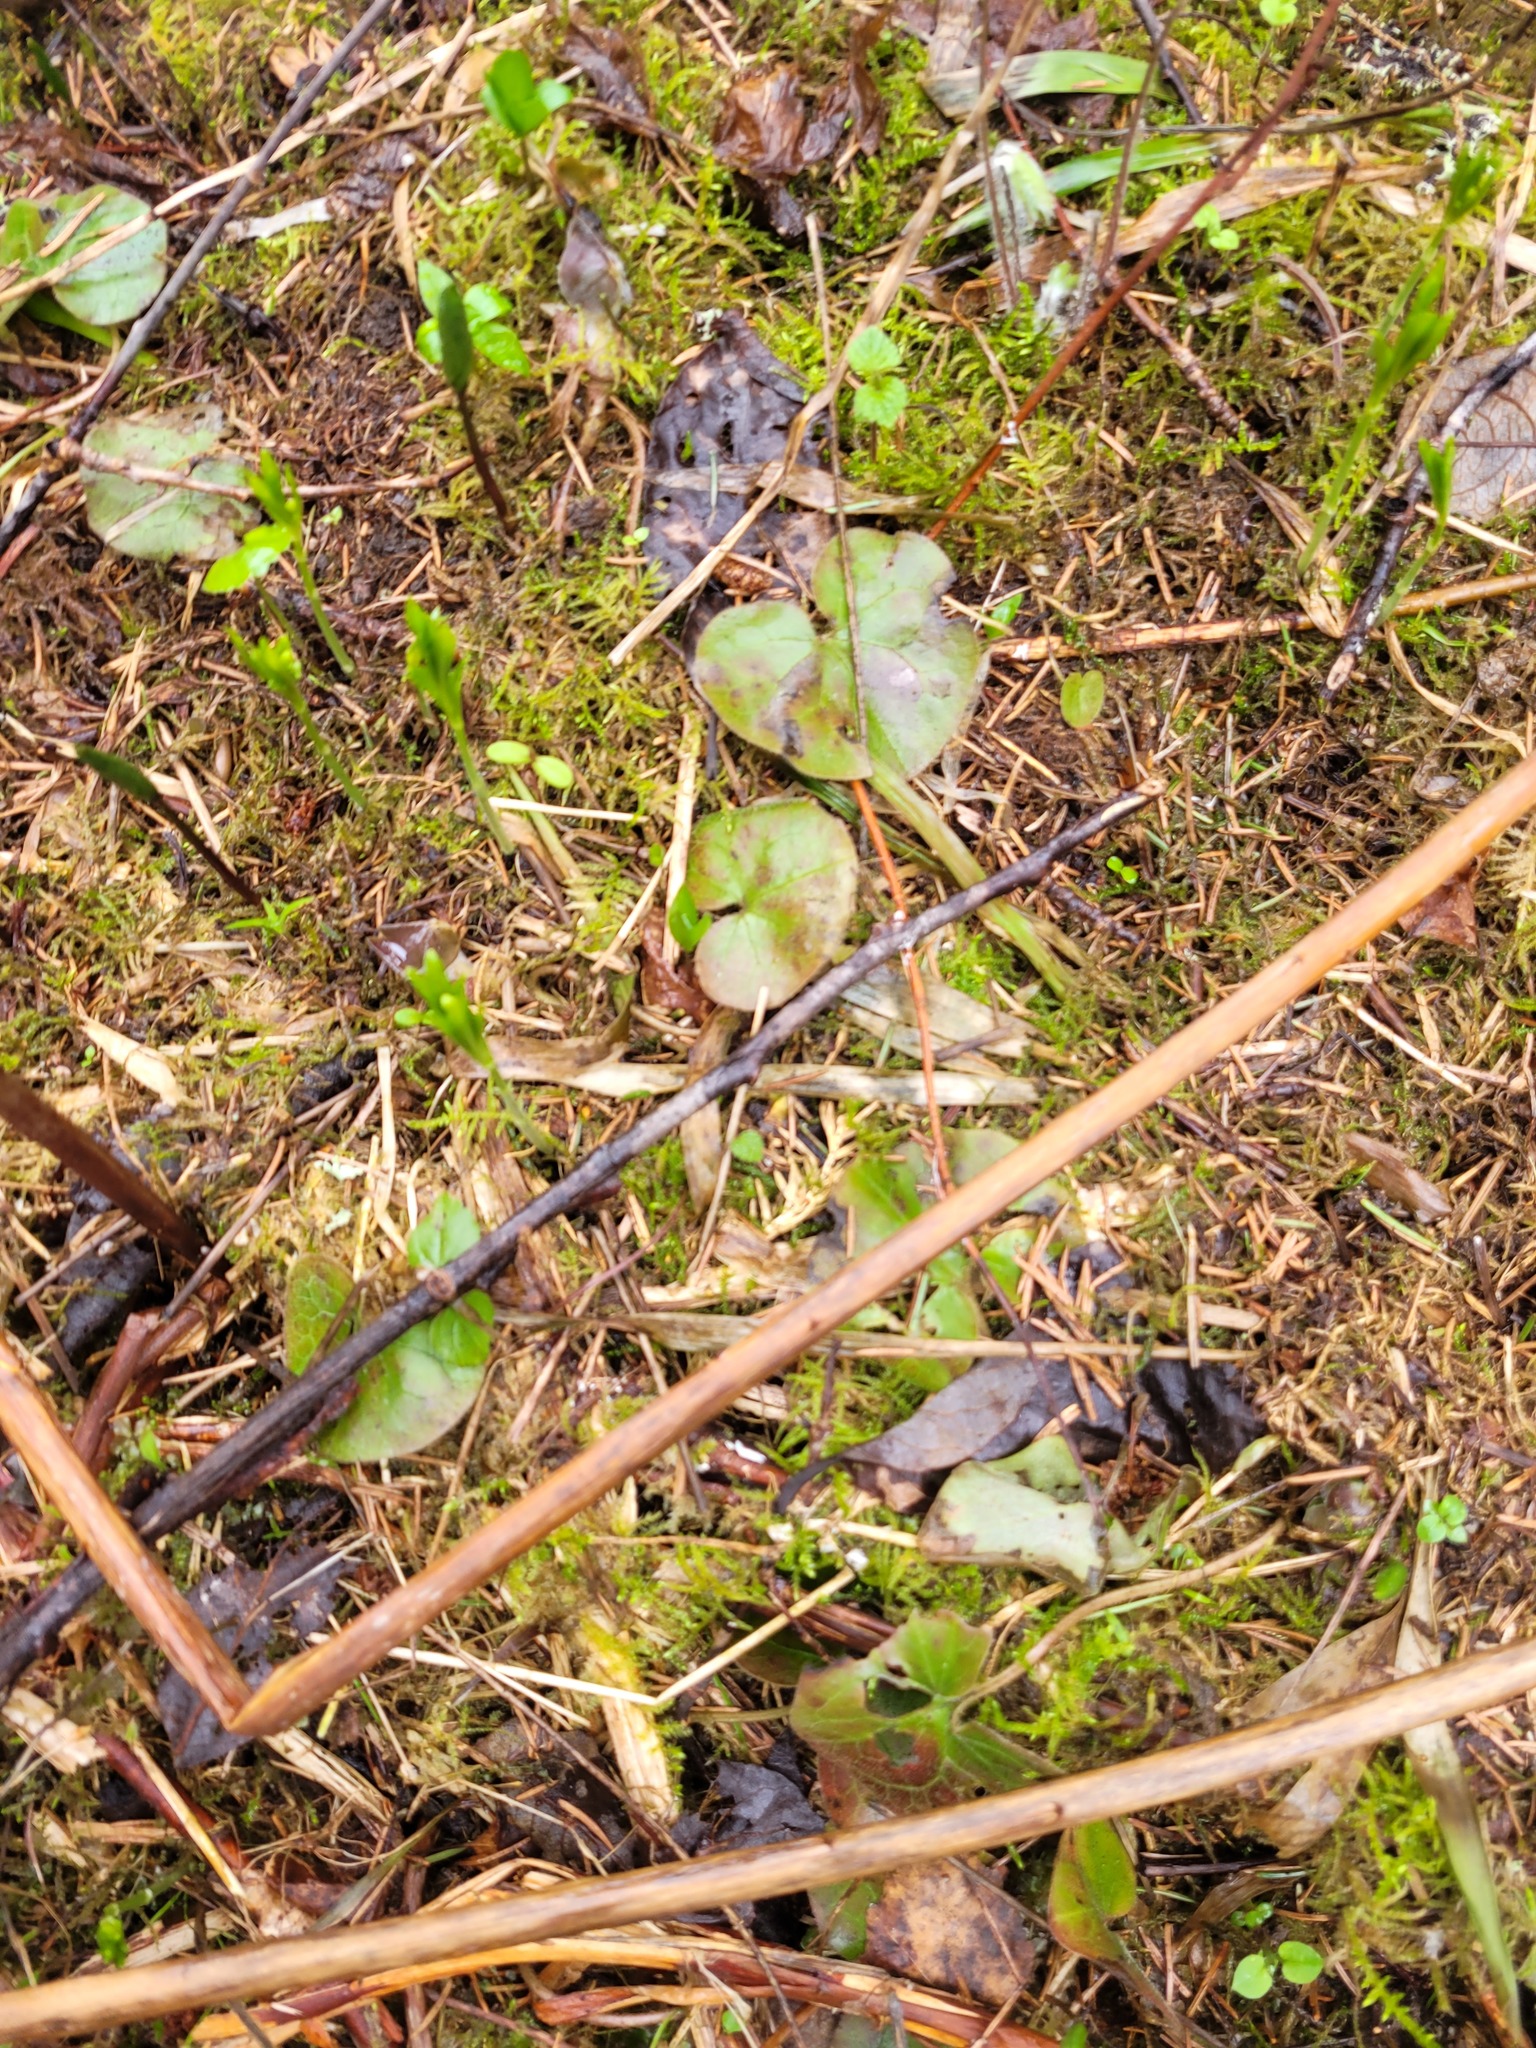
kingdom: Plantae
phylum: Tracheophyta
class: Magnoliopsida
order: Piperales
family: Aristolochiaceae
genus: Asarum
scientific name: Asarum europaeum
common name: Asarabacca
